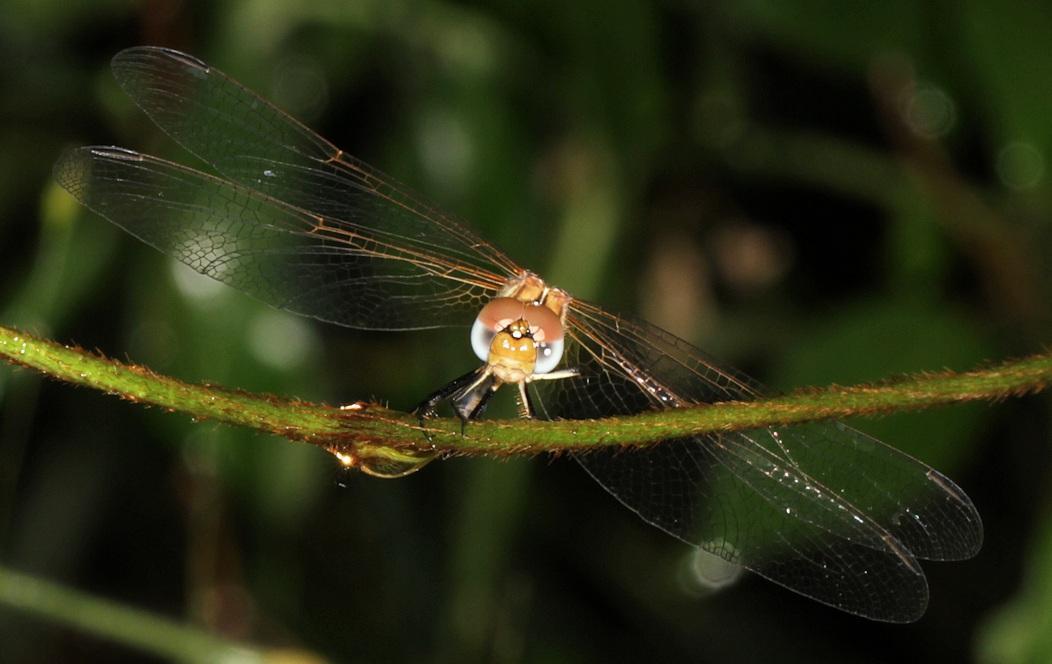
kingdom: Animalia
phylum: Arthropoda
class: Insecta
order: Odonata
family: Libellulidae
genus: Trithemis
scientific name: Trithemis arteriosa
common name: Red-veined dropwing
